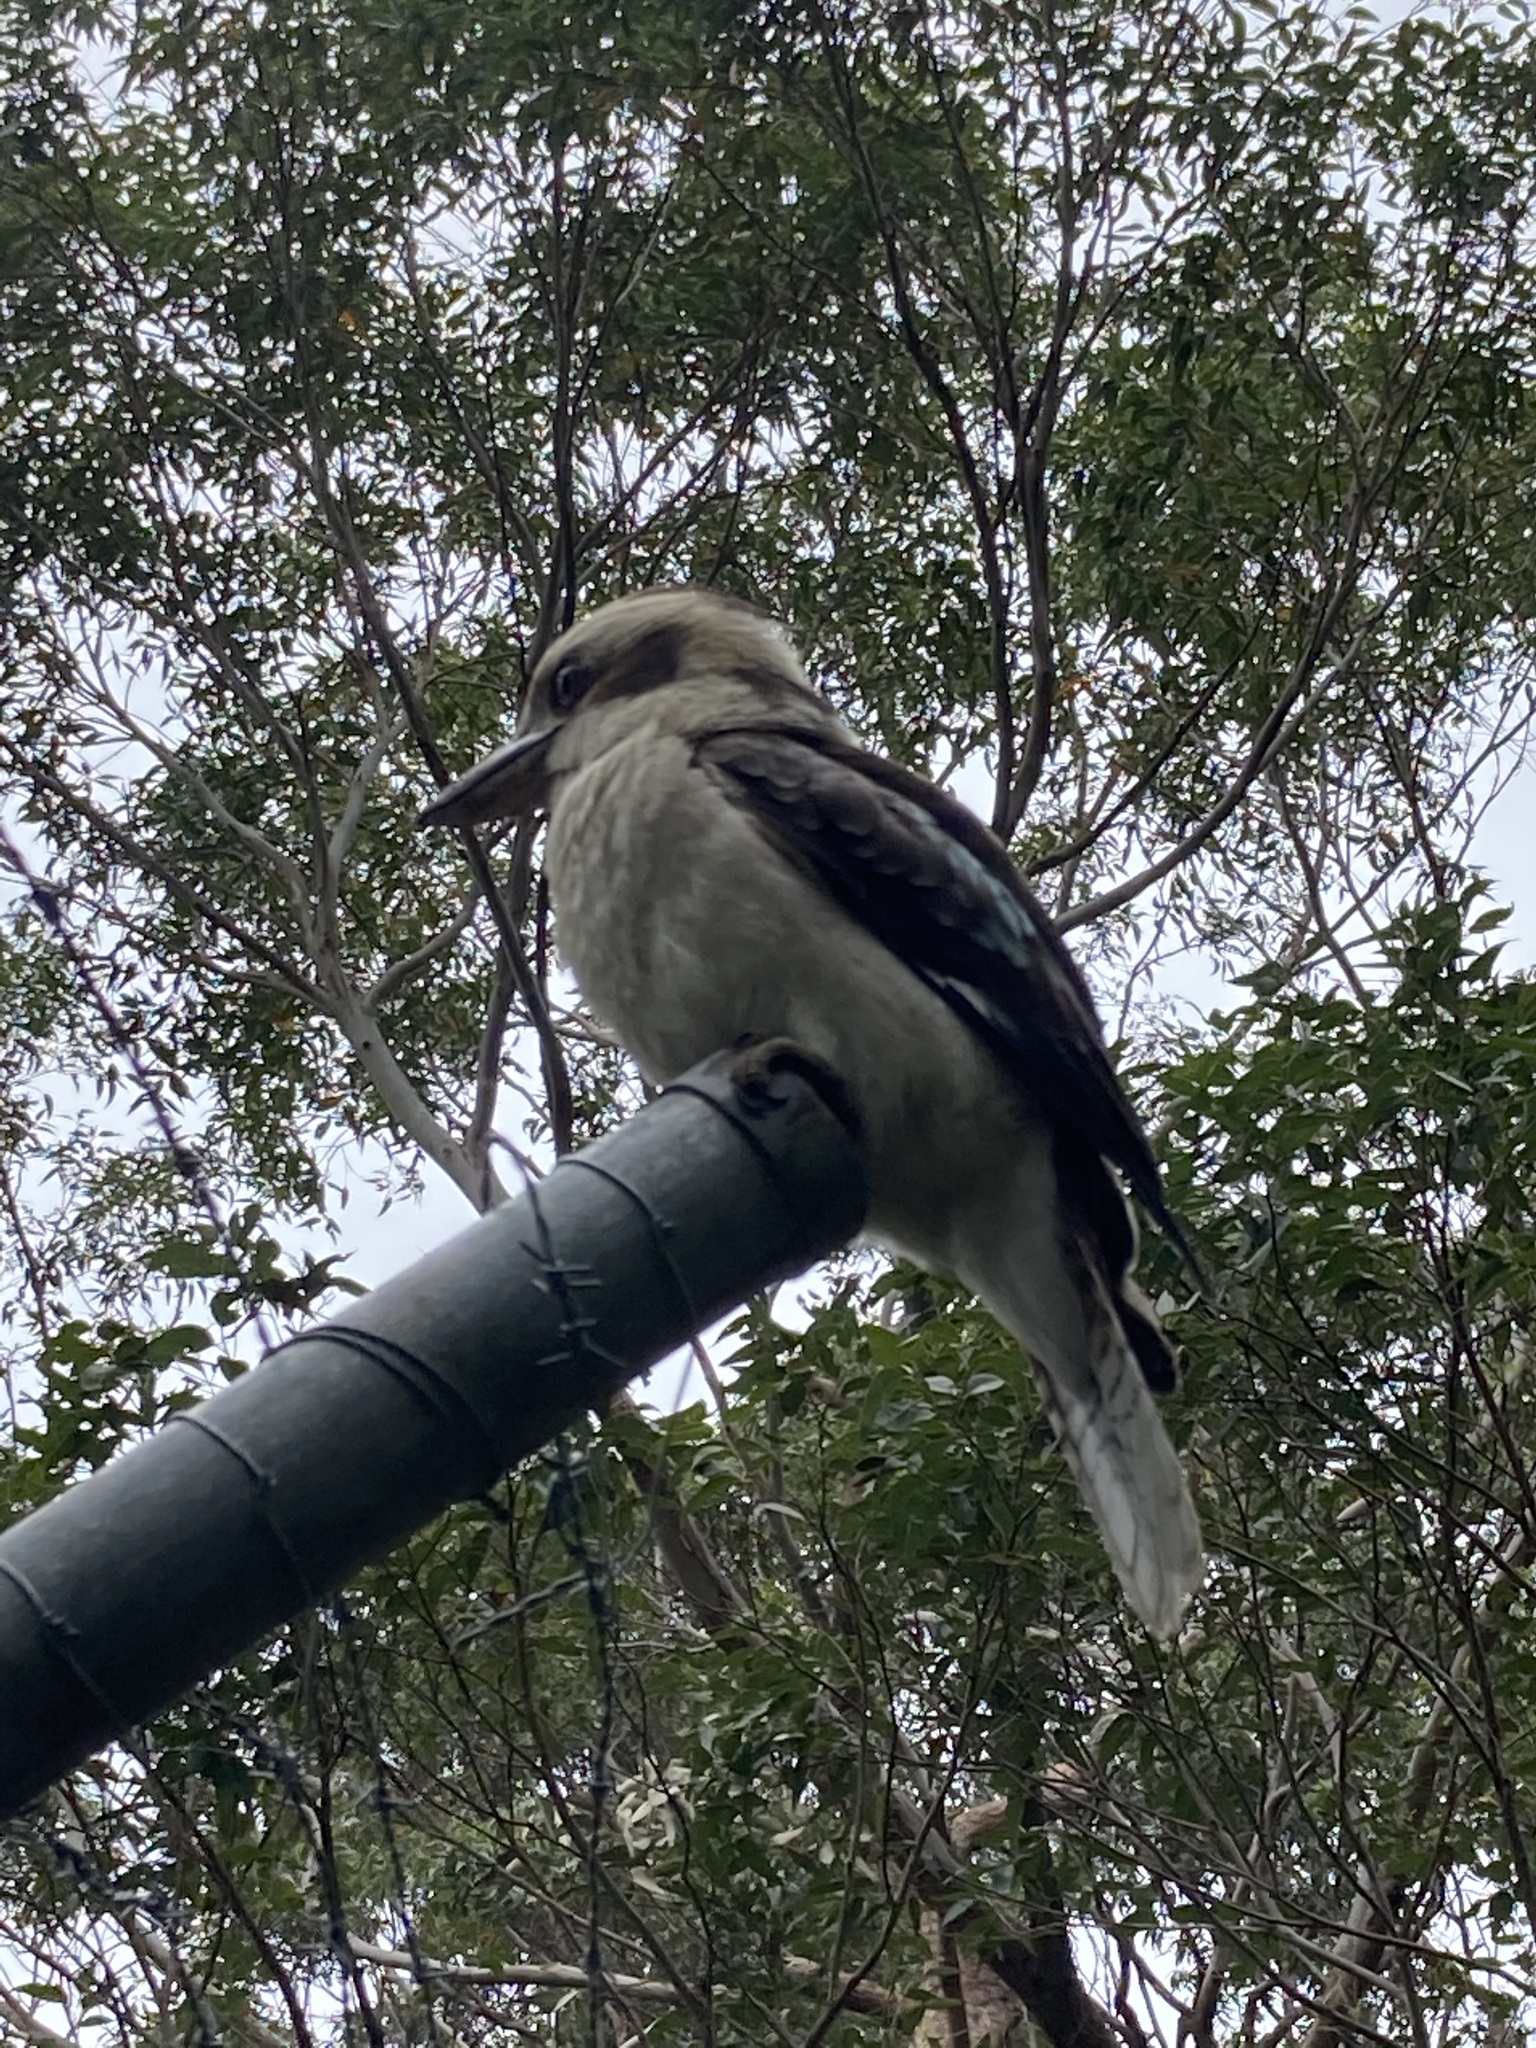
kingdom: Animalia
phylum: Chordata
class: Aves
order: Coraciiformes
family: Alcedinidae
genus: Dacelo
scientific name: Dacelo novaeguineae
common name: Laughing kookaburra
